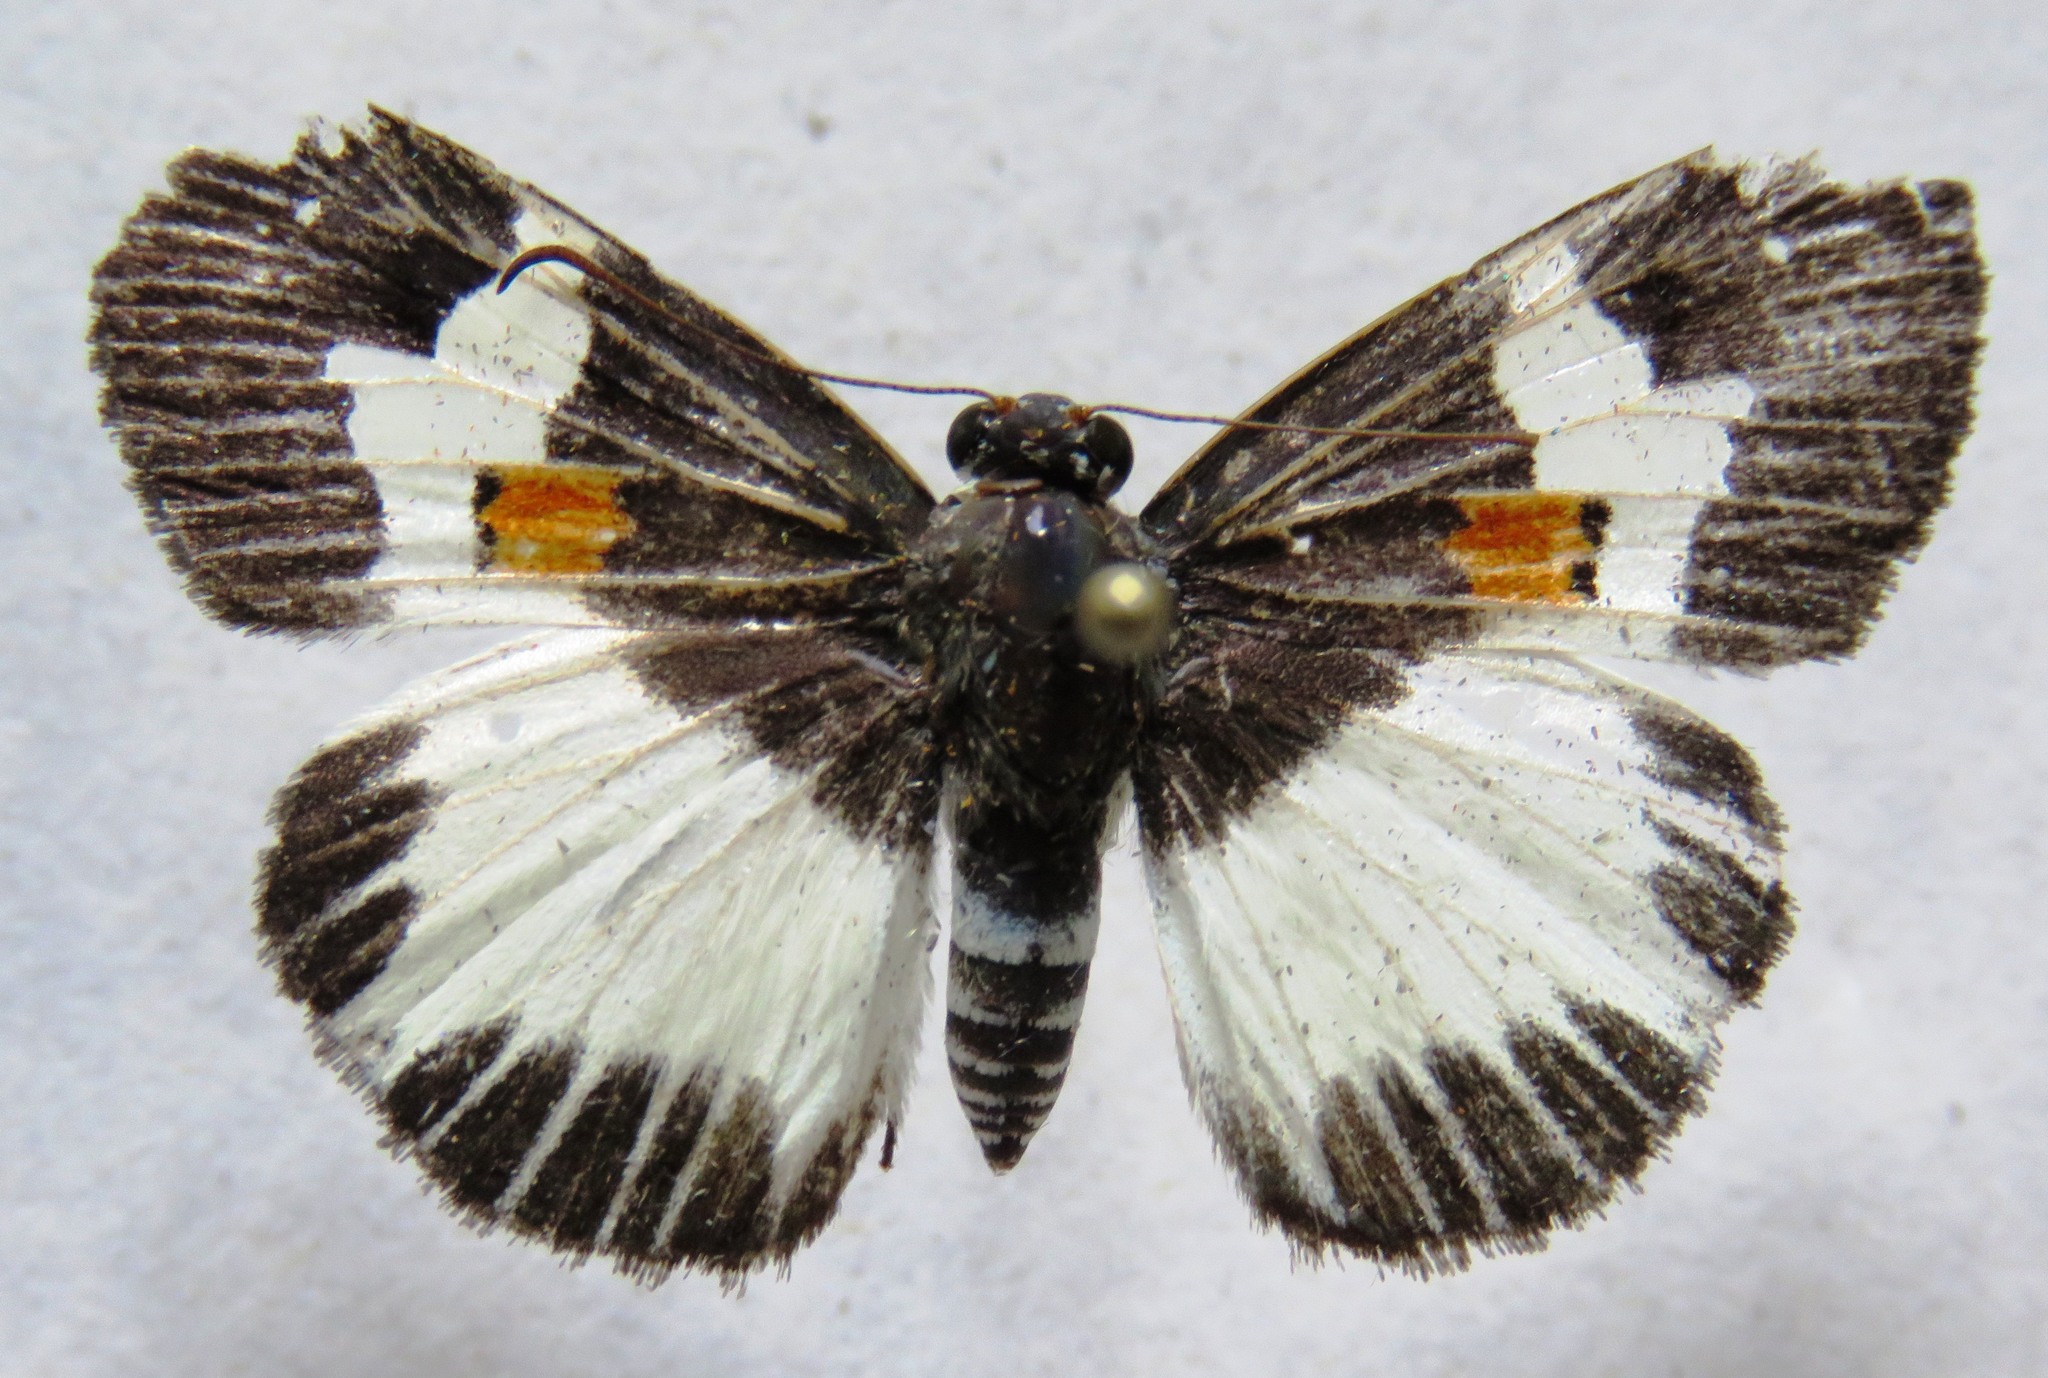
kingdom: Animalia
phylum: Arthropoda
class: Insecta
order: Lepidoptera
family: Hesperiidae
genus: Atarnes
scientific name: Atarnes sallei
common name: Orange-spotted skipper
